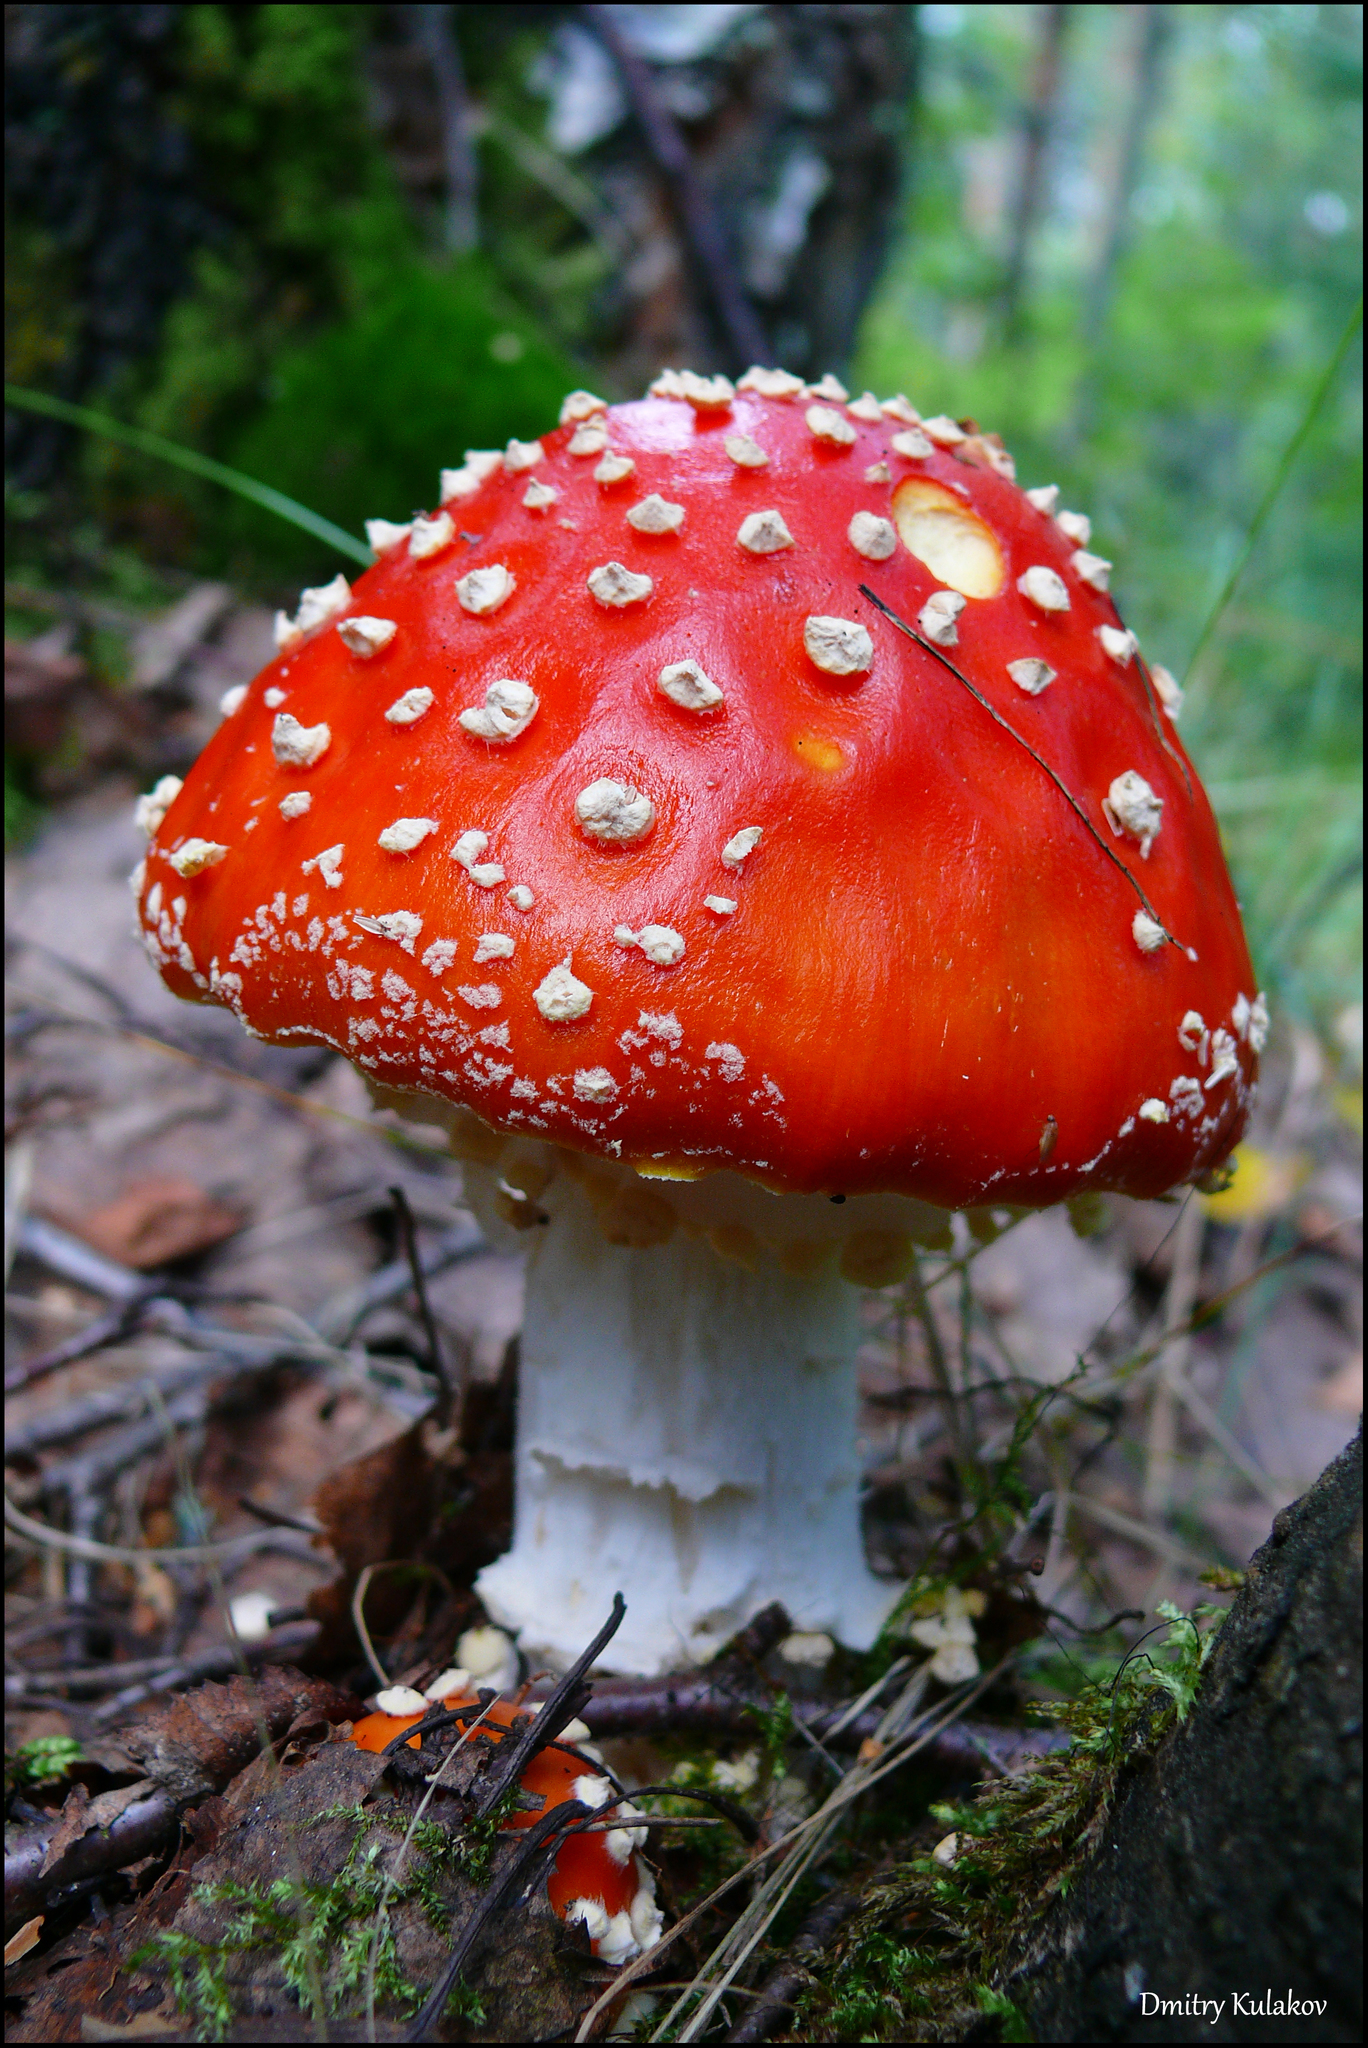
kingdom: Fungi
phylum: Basidiomycota
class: Agaricomycetes
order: Agaricales
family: Amanitaceae
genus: Amanita
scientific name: Amanita muscaria
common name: Fly agaric
